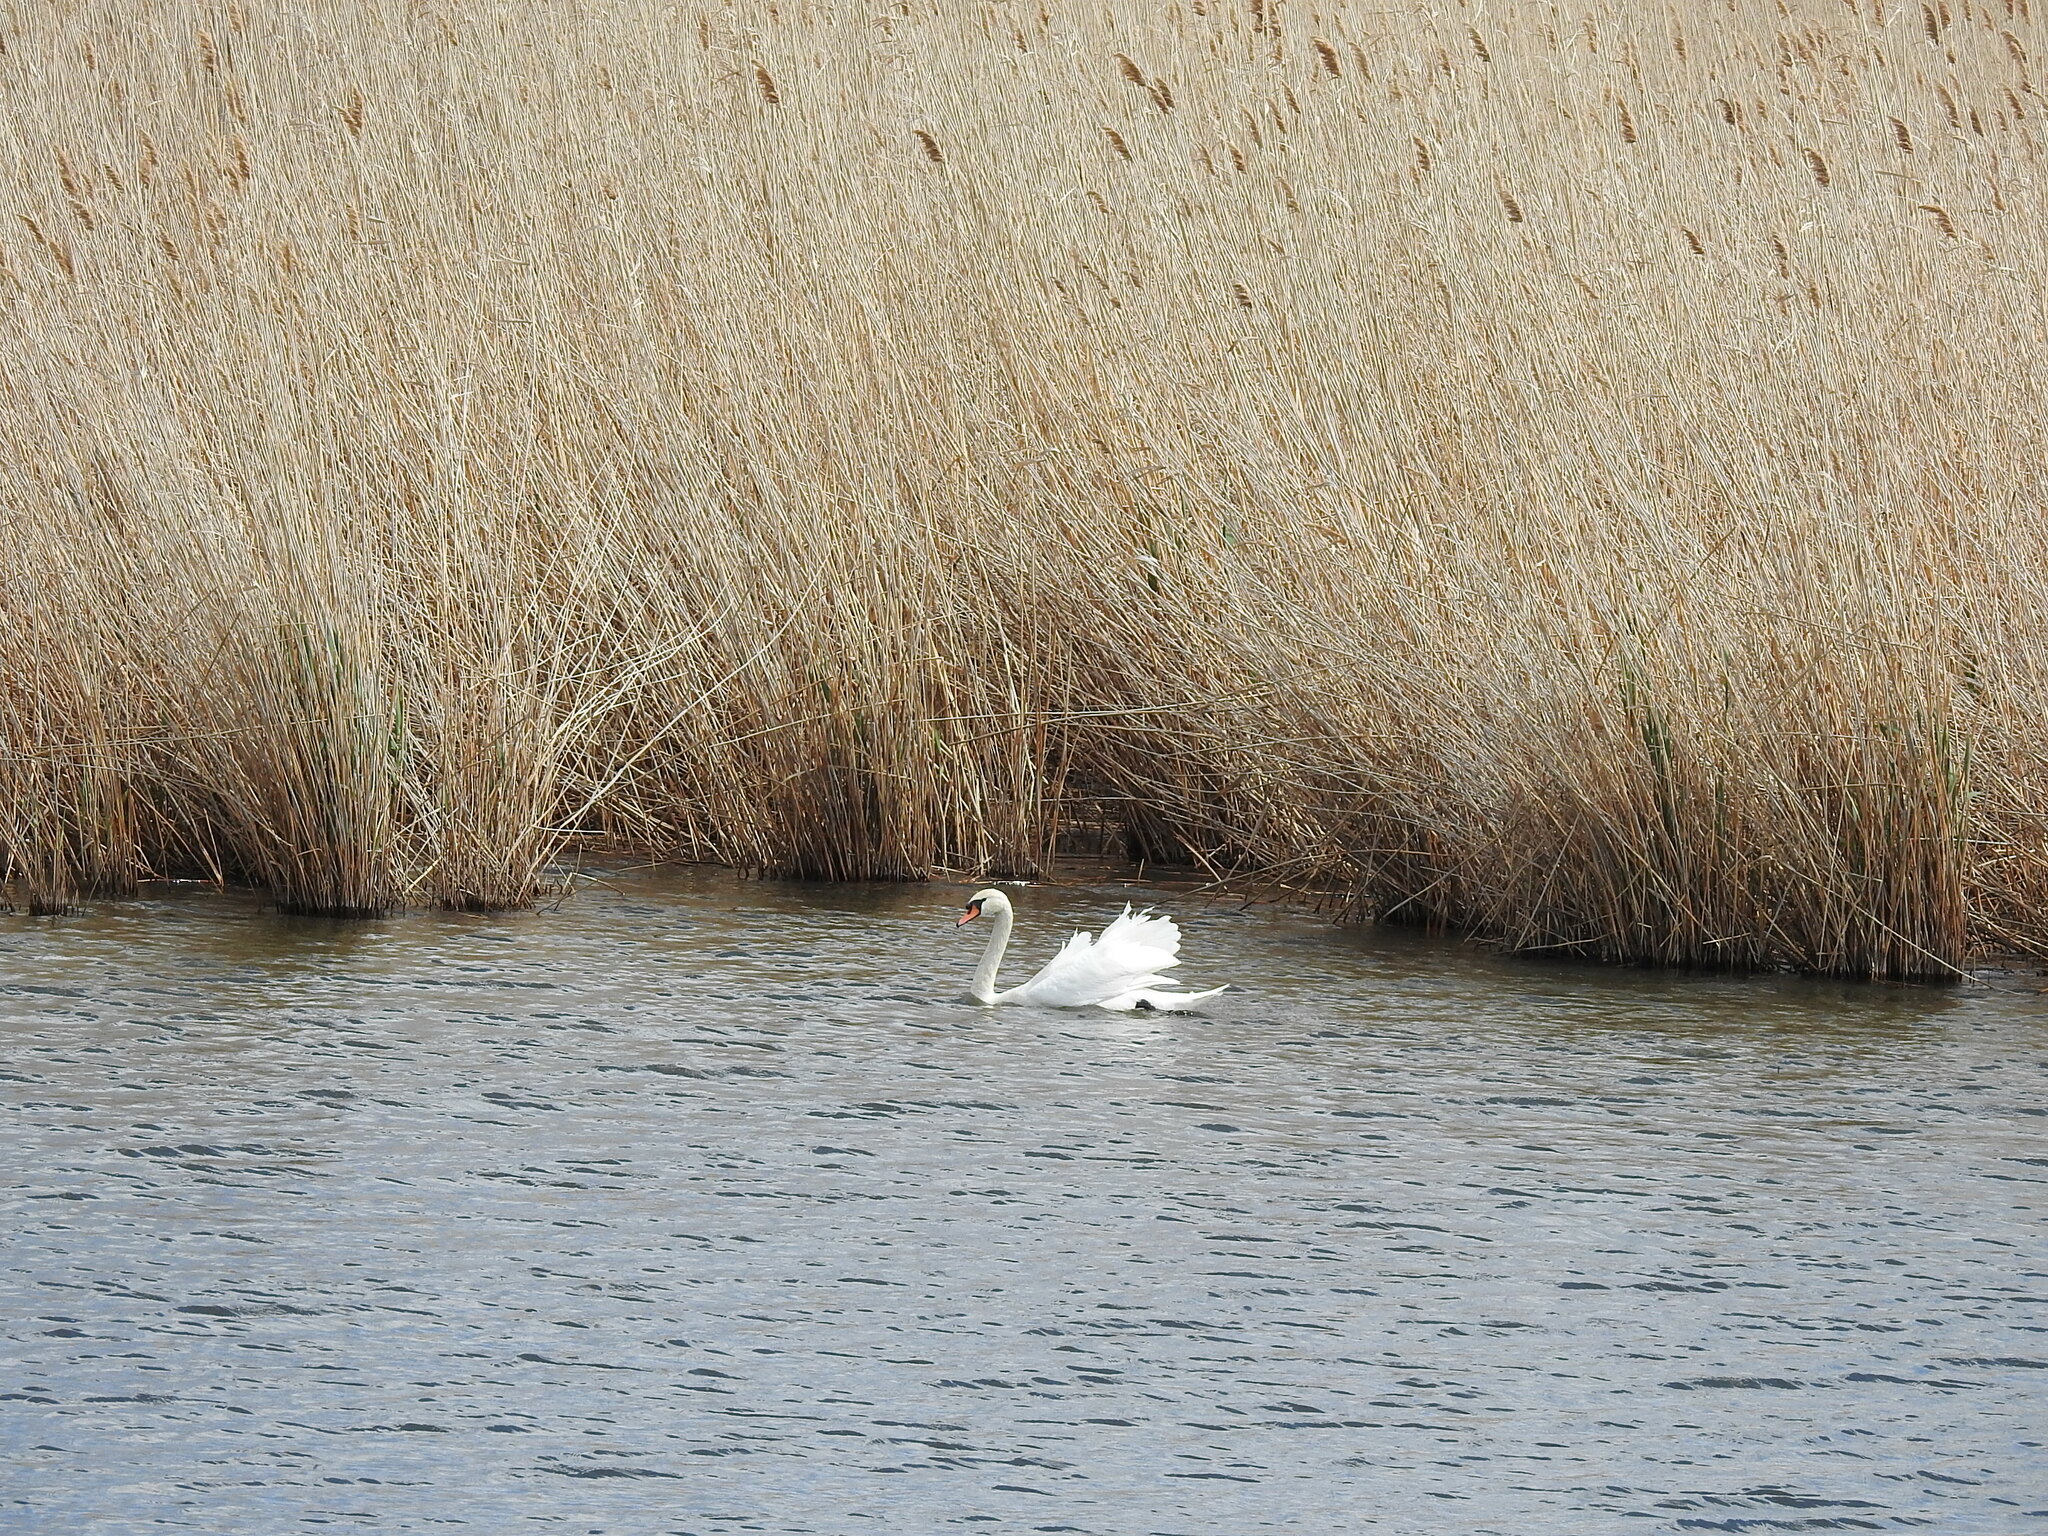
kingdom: Animalia
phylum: Chordata
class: Aves
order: Anseriformes
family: Anatidae
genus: Cygnus
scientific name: Cygnus olor
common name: Mute swan
